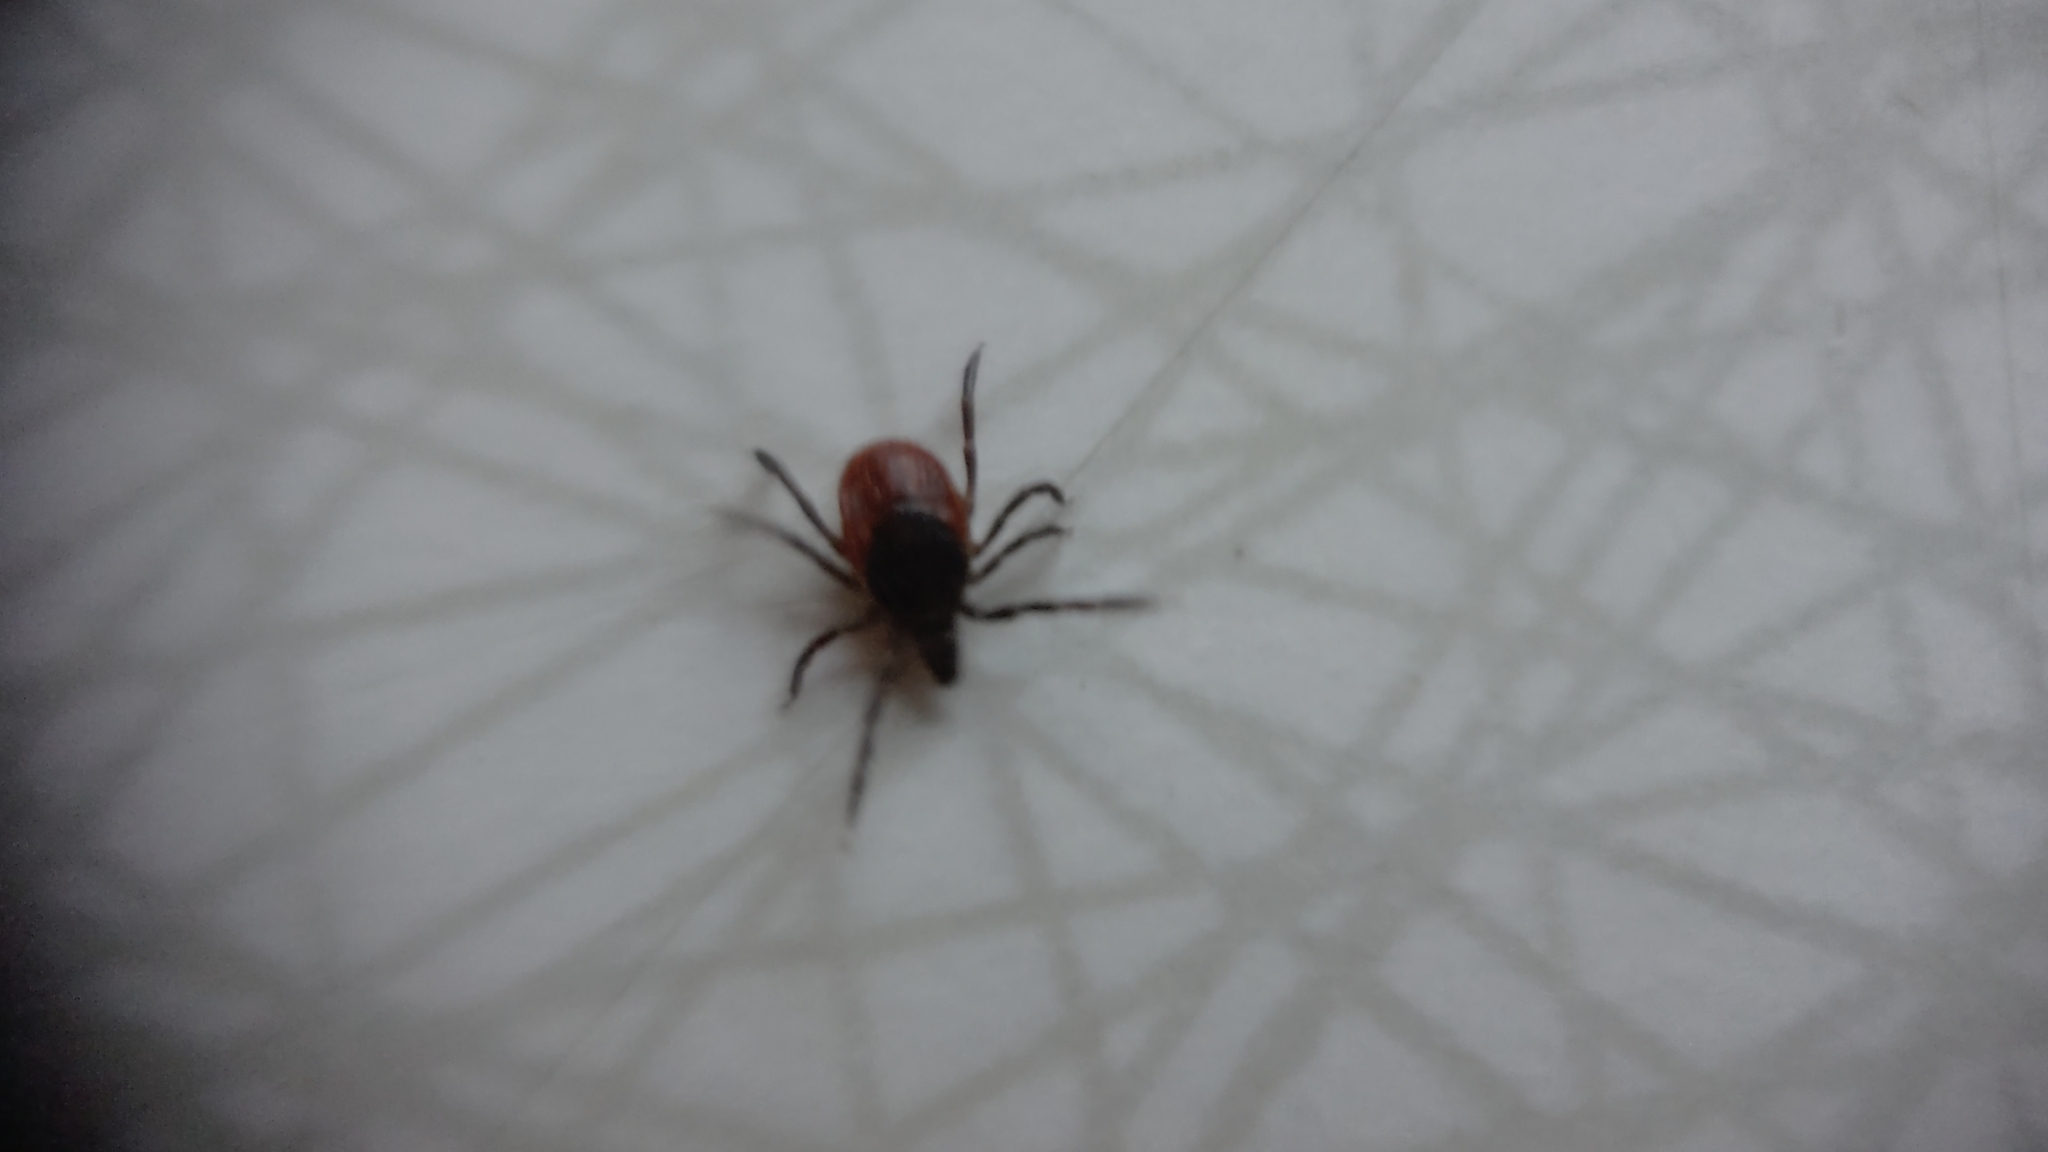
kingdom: Animalia
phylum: Arthropoda
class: Arachnida
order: Ixodida
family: Ixodidae
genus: Ixodes
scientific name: Ixodes ricinus
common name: Castor bean tick
